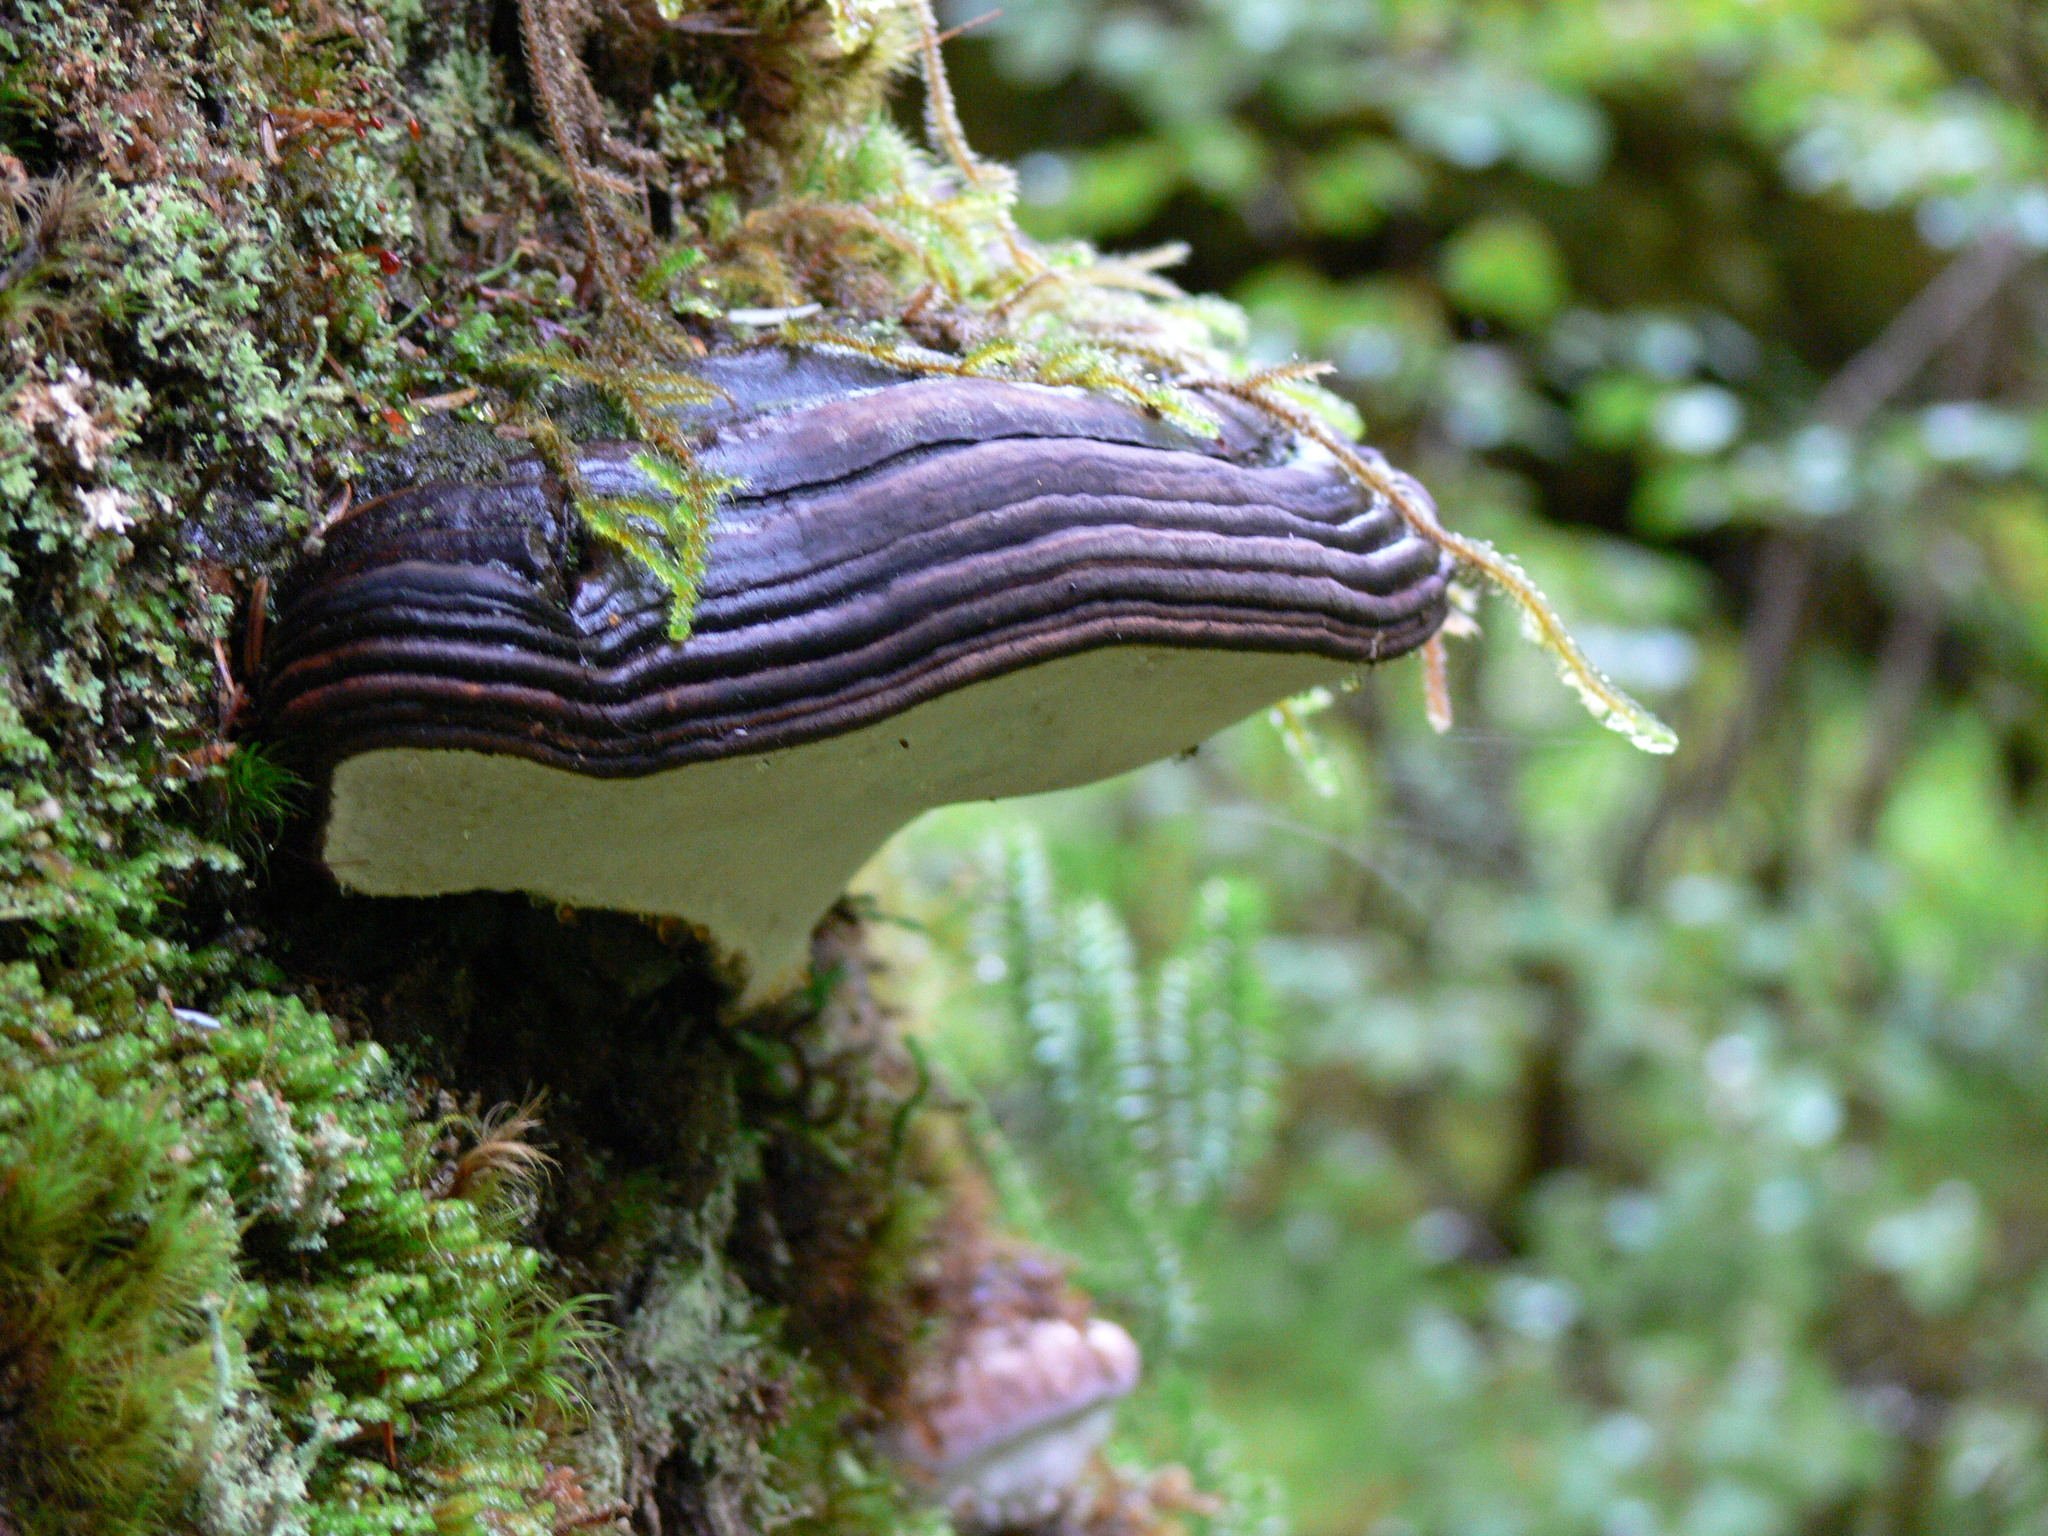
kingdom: Fungi
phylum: Basidiomycota
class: Agaricomycetes
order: Polyporales
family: Fomitopsidaceae
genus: Fomitopsis
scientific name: Fomitopsis ochracea
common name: American brown fomitopsis
